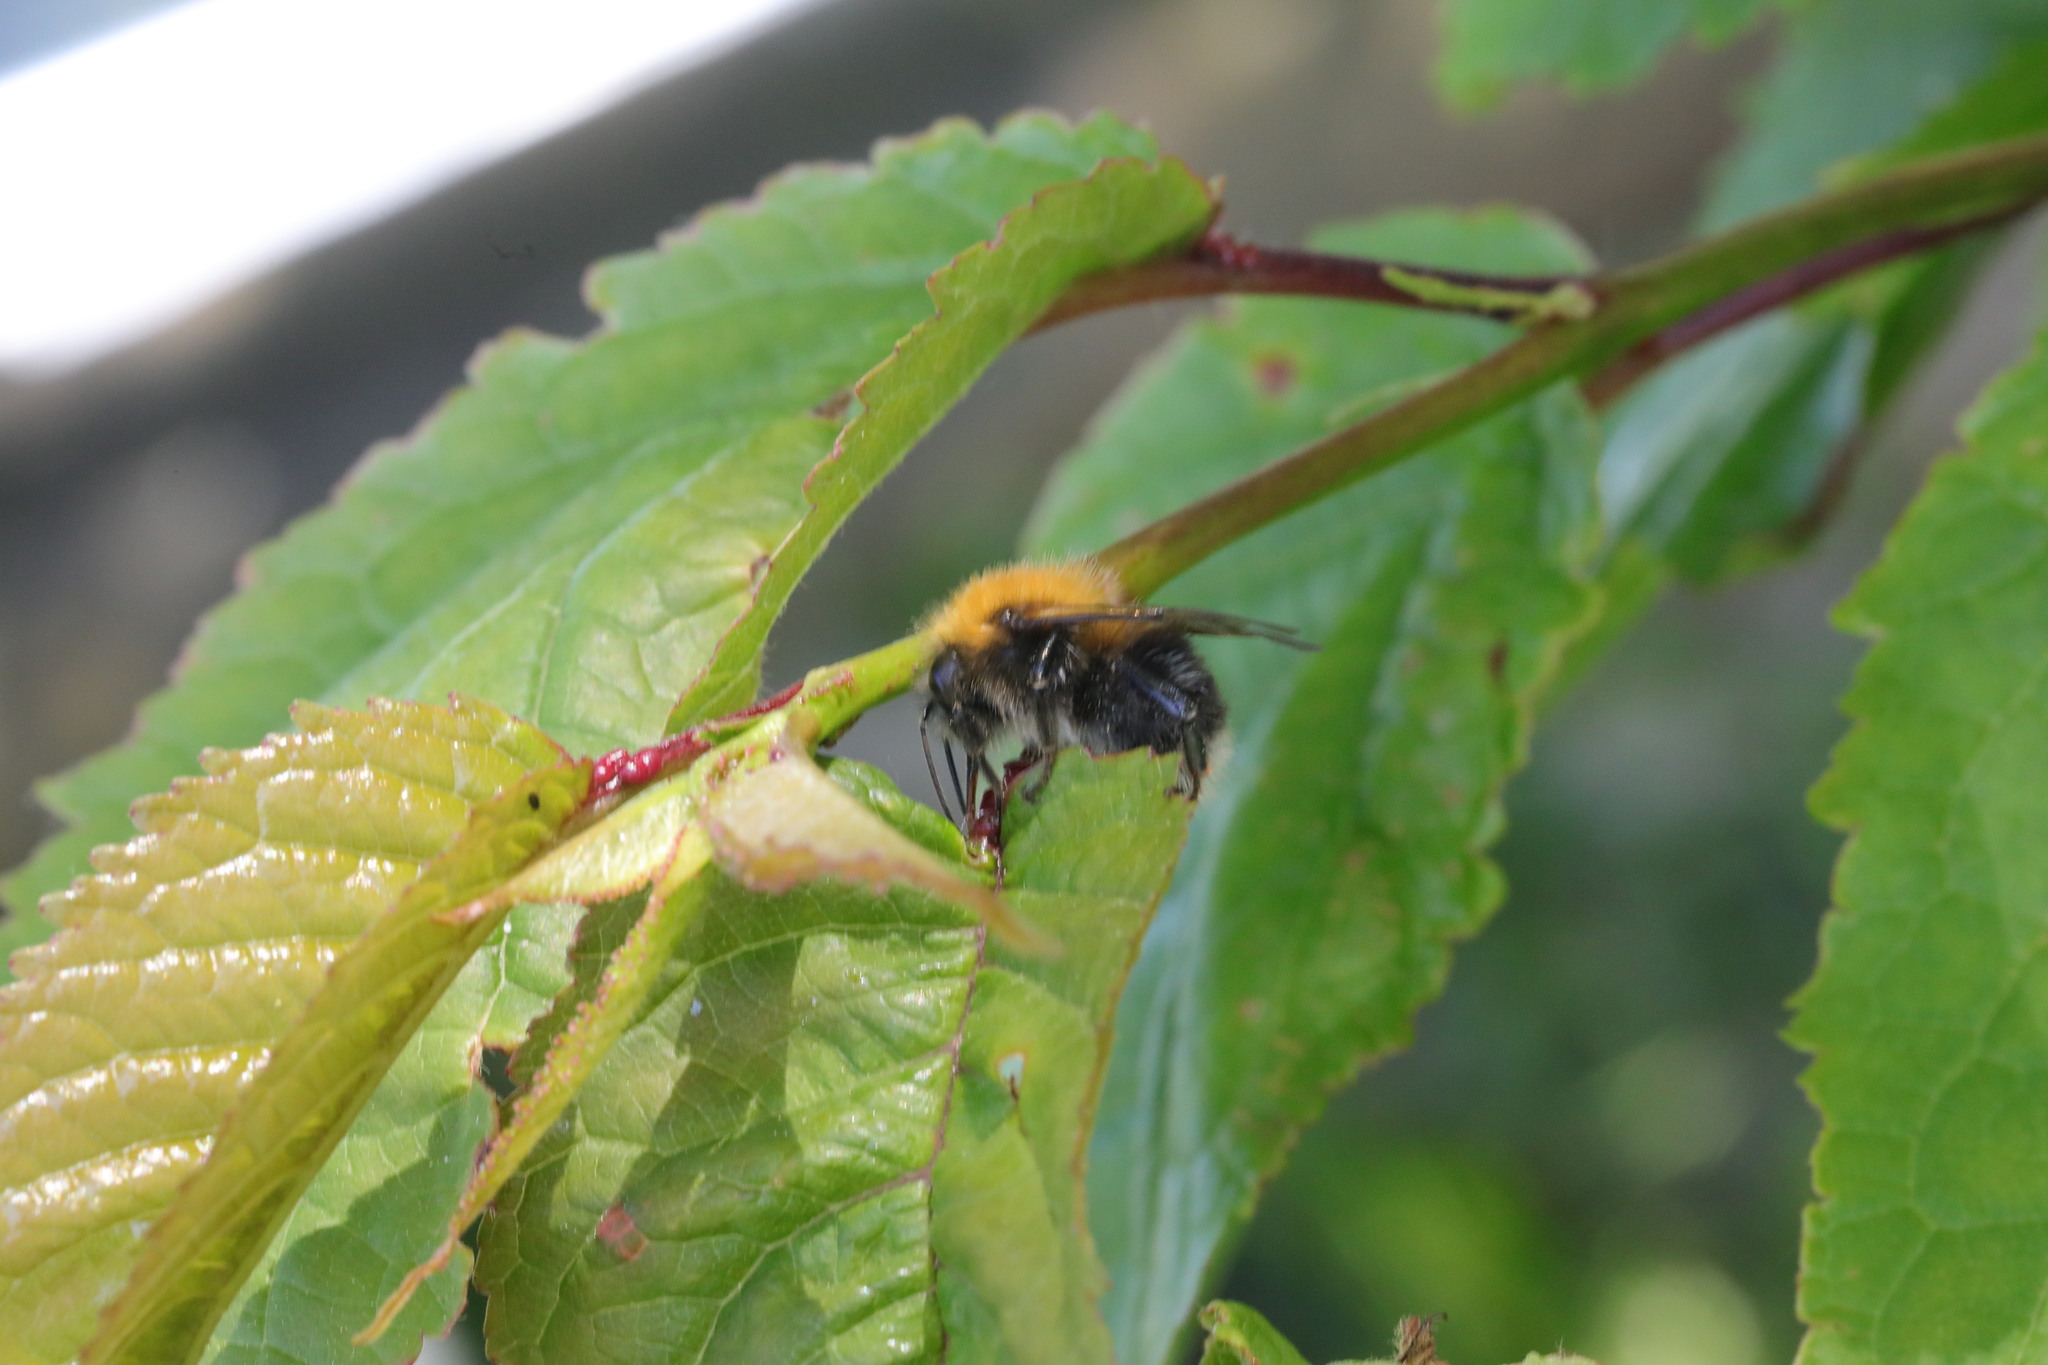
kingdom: Animalia
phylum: Arthropoda
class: Insecta
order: Hymenoptera
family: Apidae
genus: Bombus
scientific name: Bombus hypnorum
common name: New garden bumblebee
